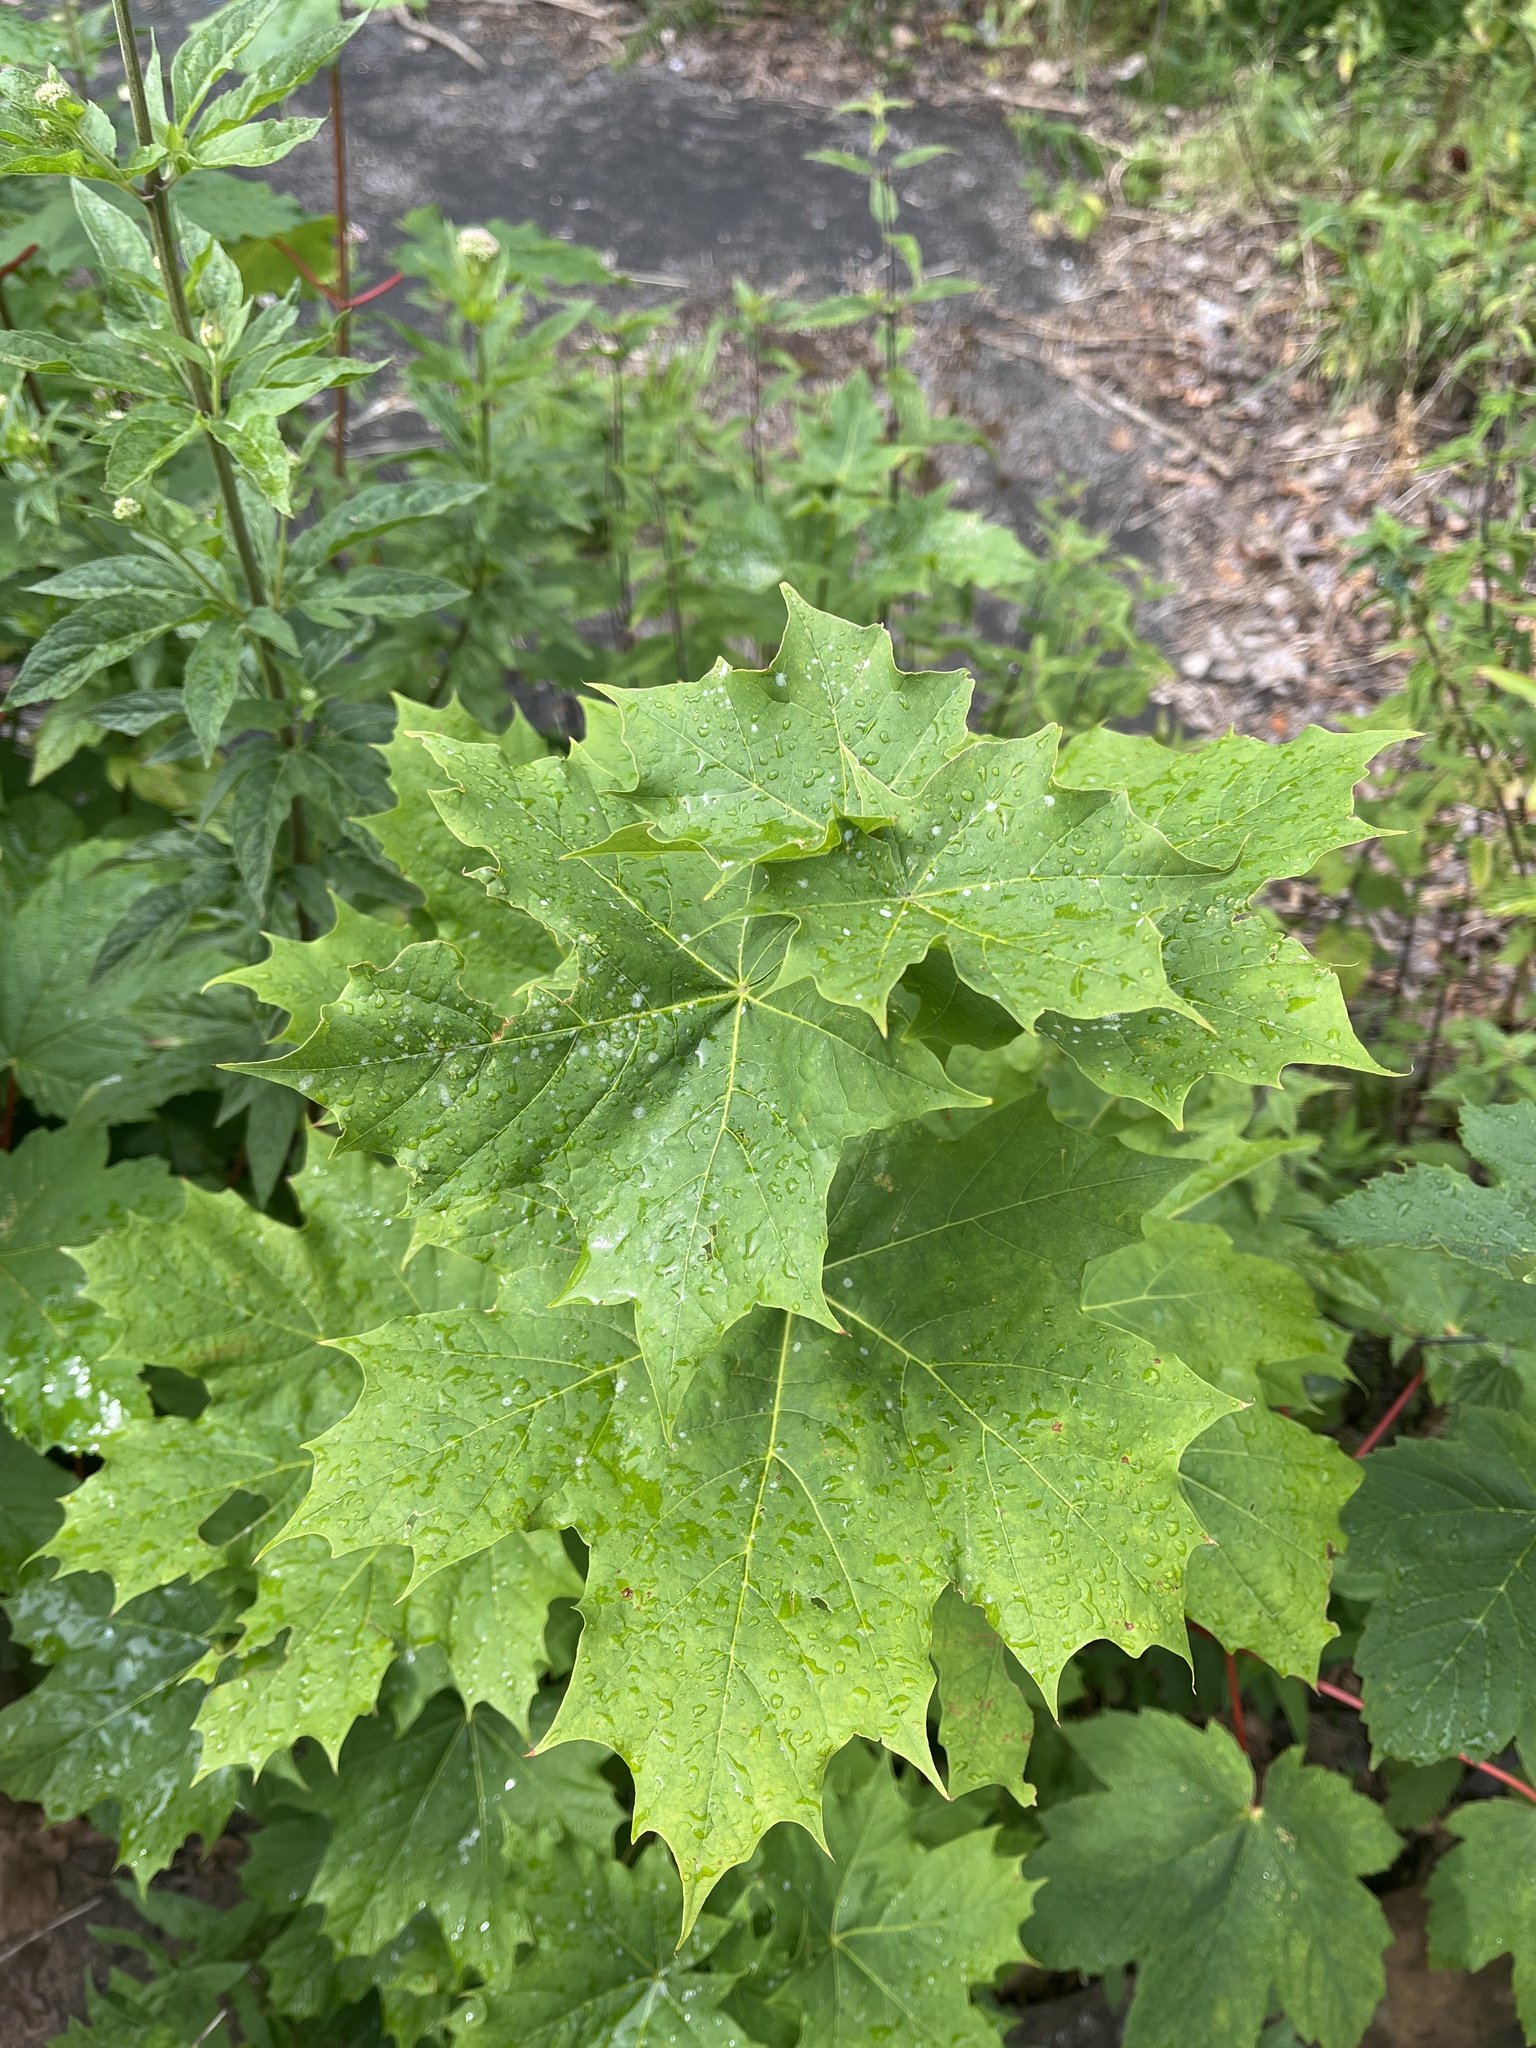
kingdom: Plantae
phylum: Tracheophyta
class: Magnoliopsida
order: Sapindales
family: Sapindaceae
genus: Acer
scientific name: Acer platanoides
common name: Norway maple
